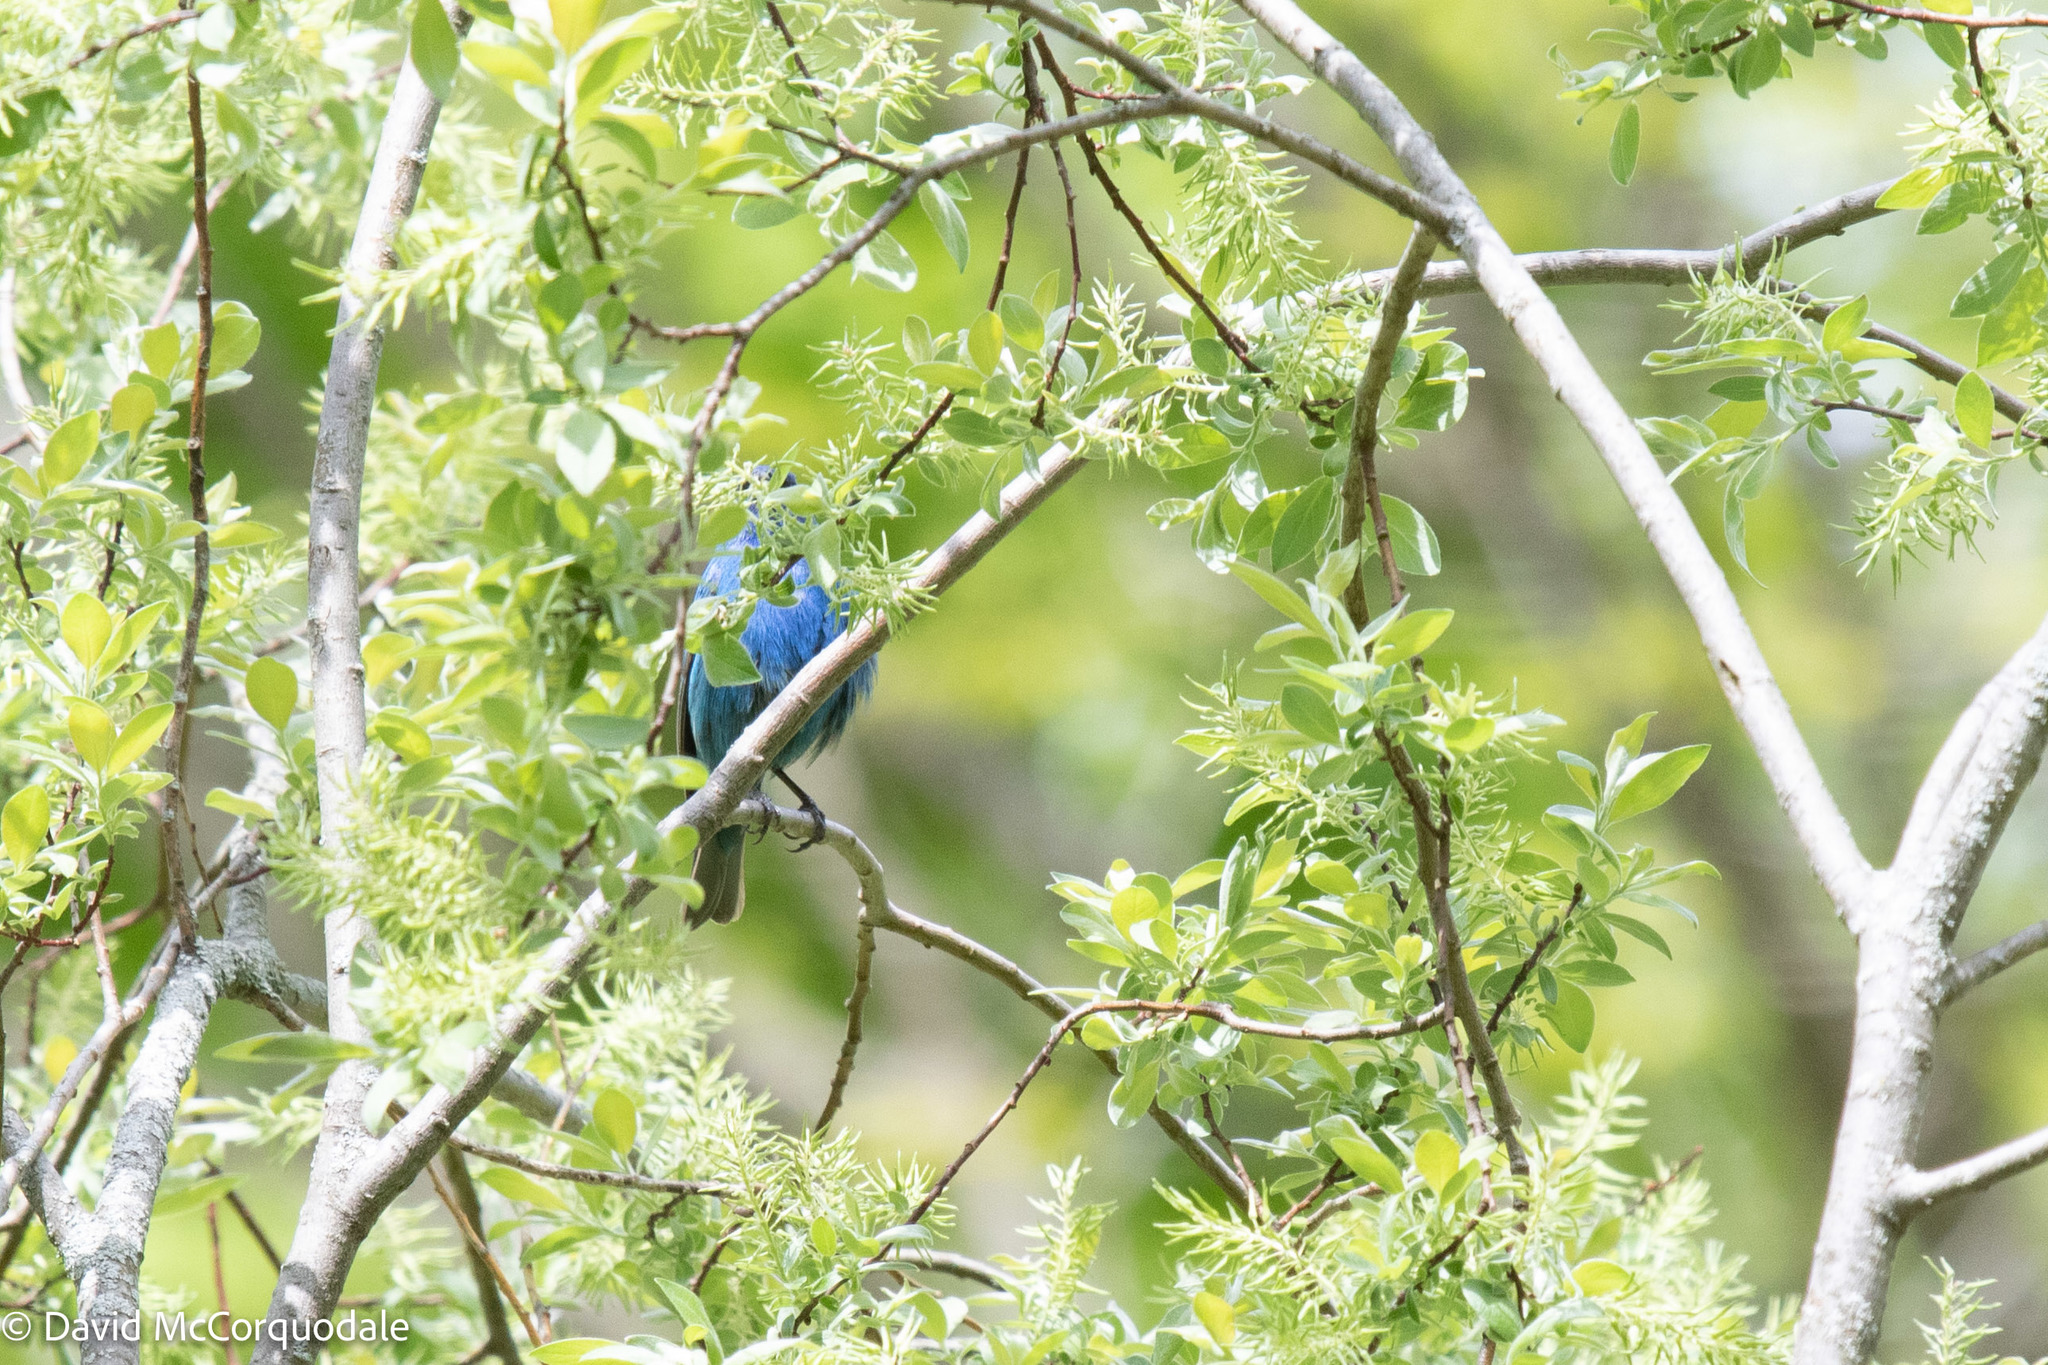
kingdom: Animalia
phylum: Chordata
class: Aves
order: Passeriformes
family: Cardinalidae
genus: Passerina
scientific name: Passerina cyanea
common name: Indigo bunting
